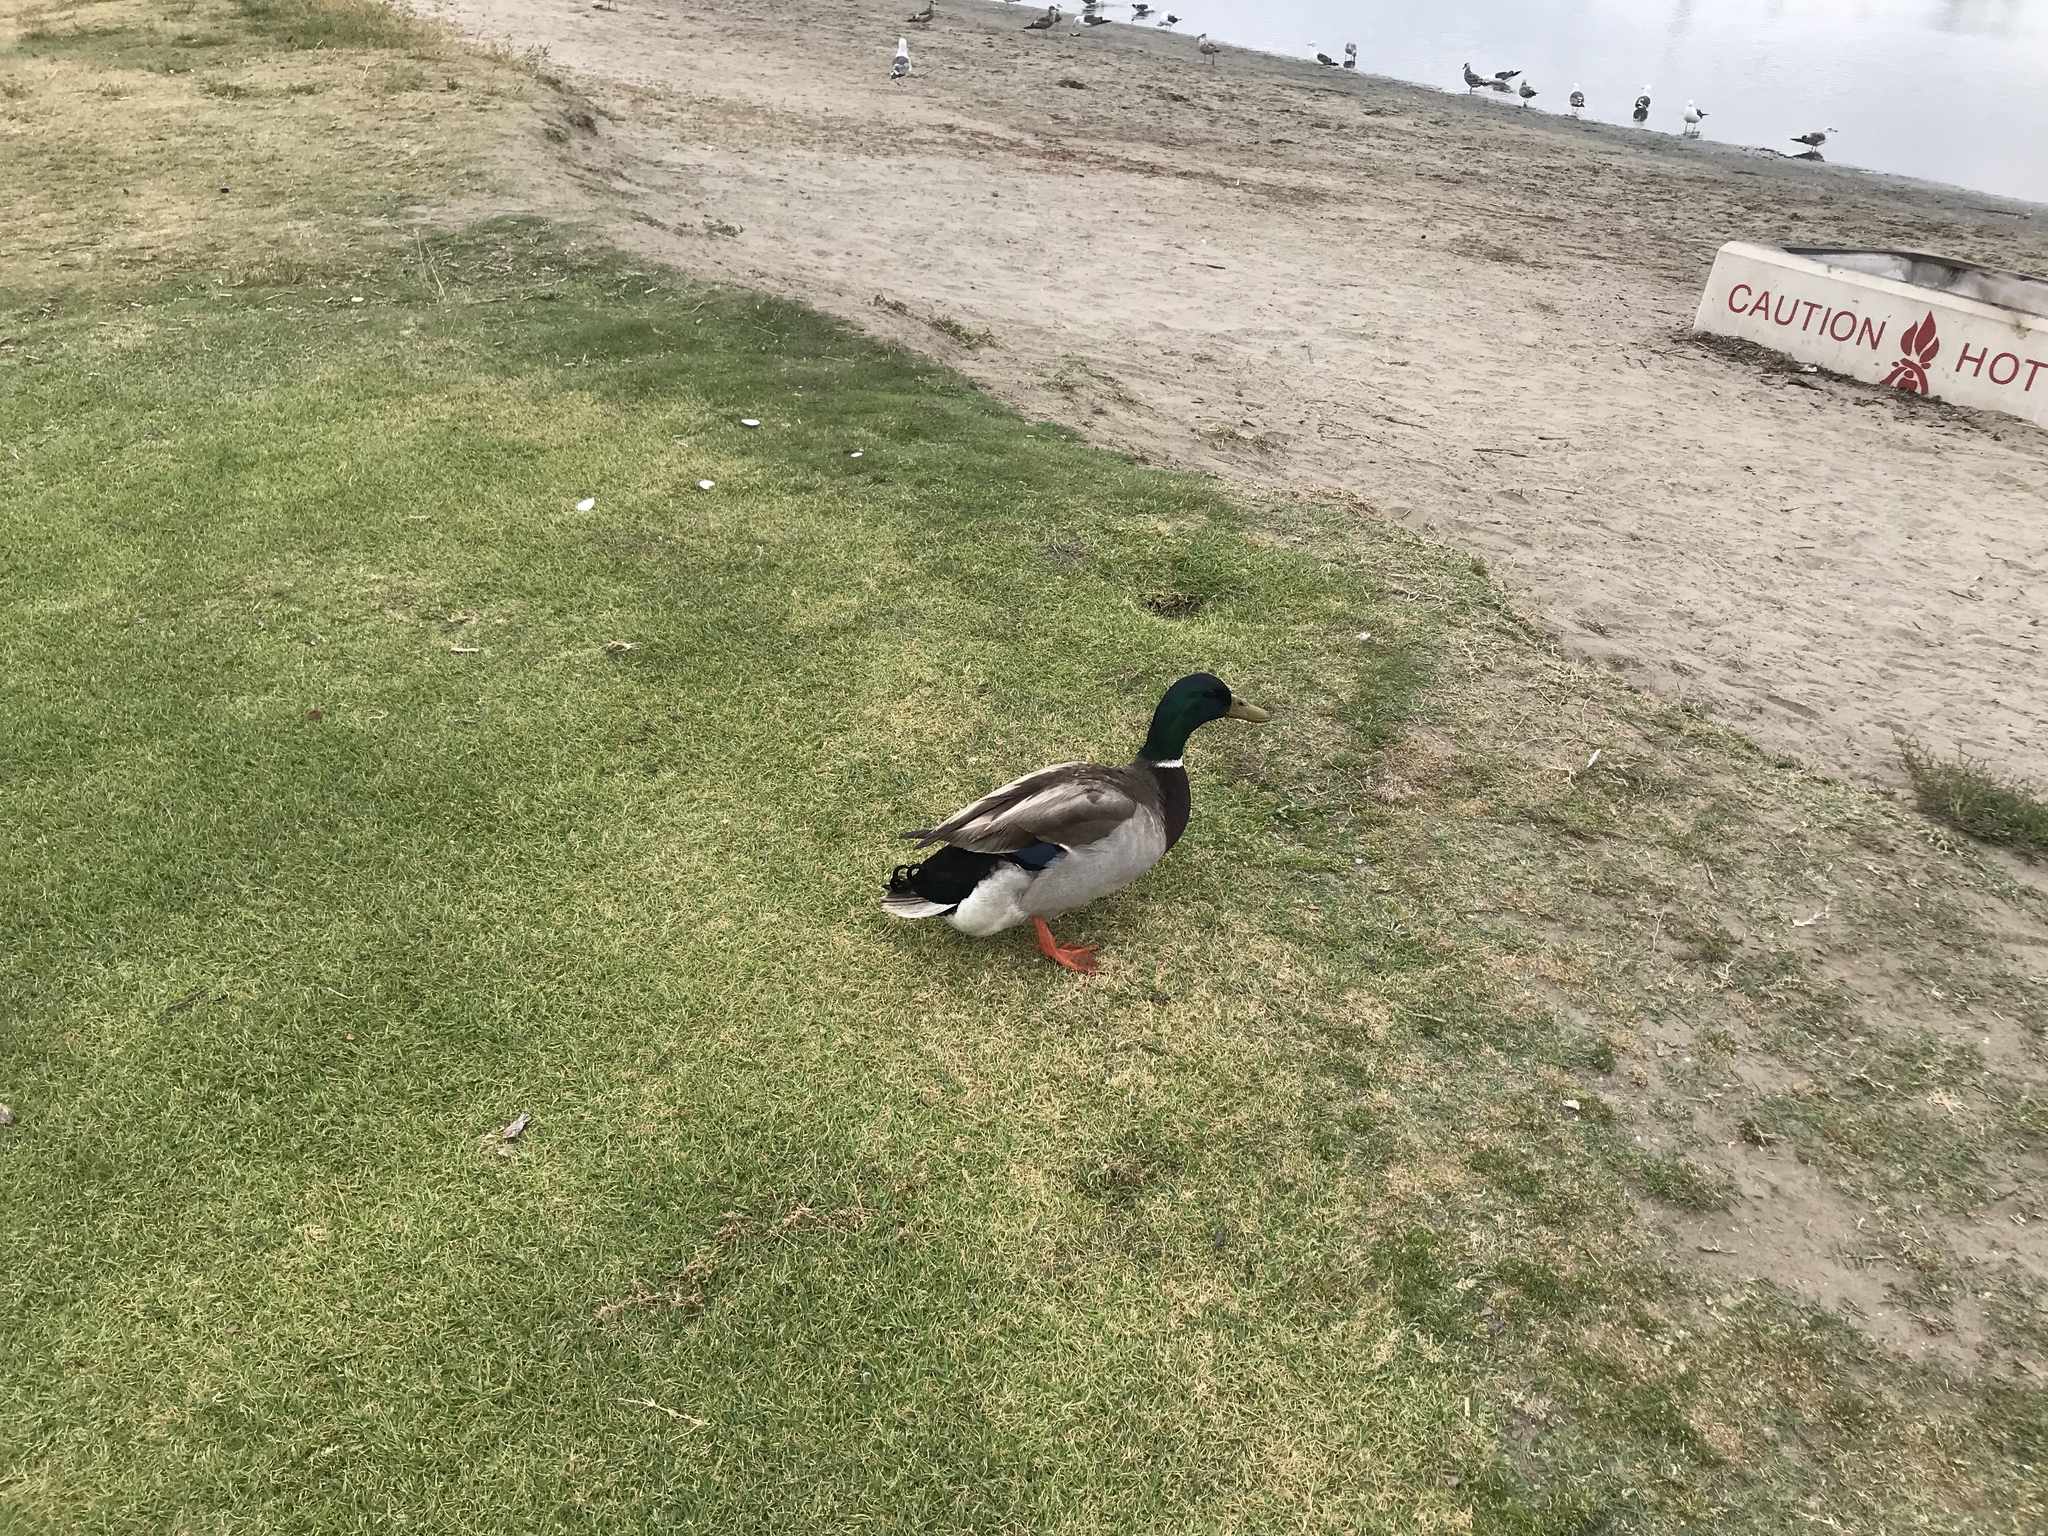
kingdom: Animalia
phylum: Chordata
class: Aves
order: Anseriformes
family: Anatidae
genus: Anas
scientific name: Anas platyrhynchos
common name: Mallard
